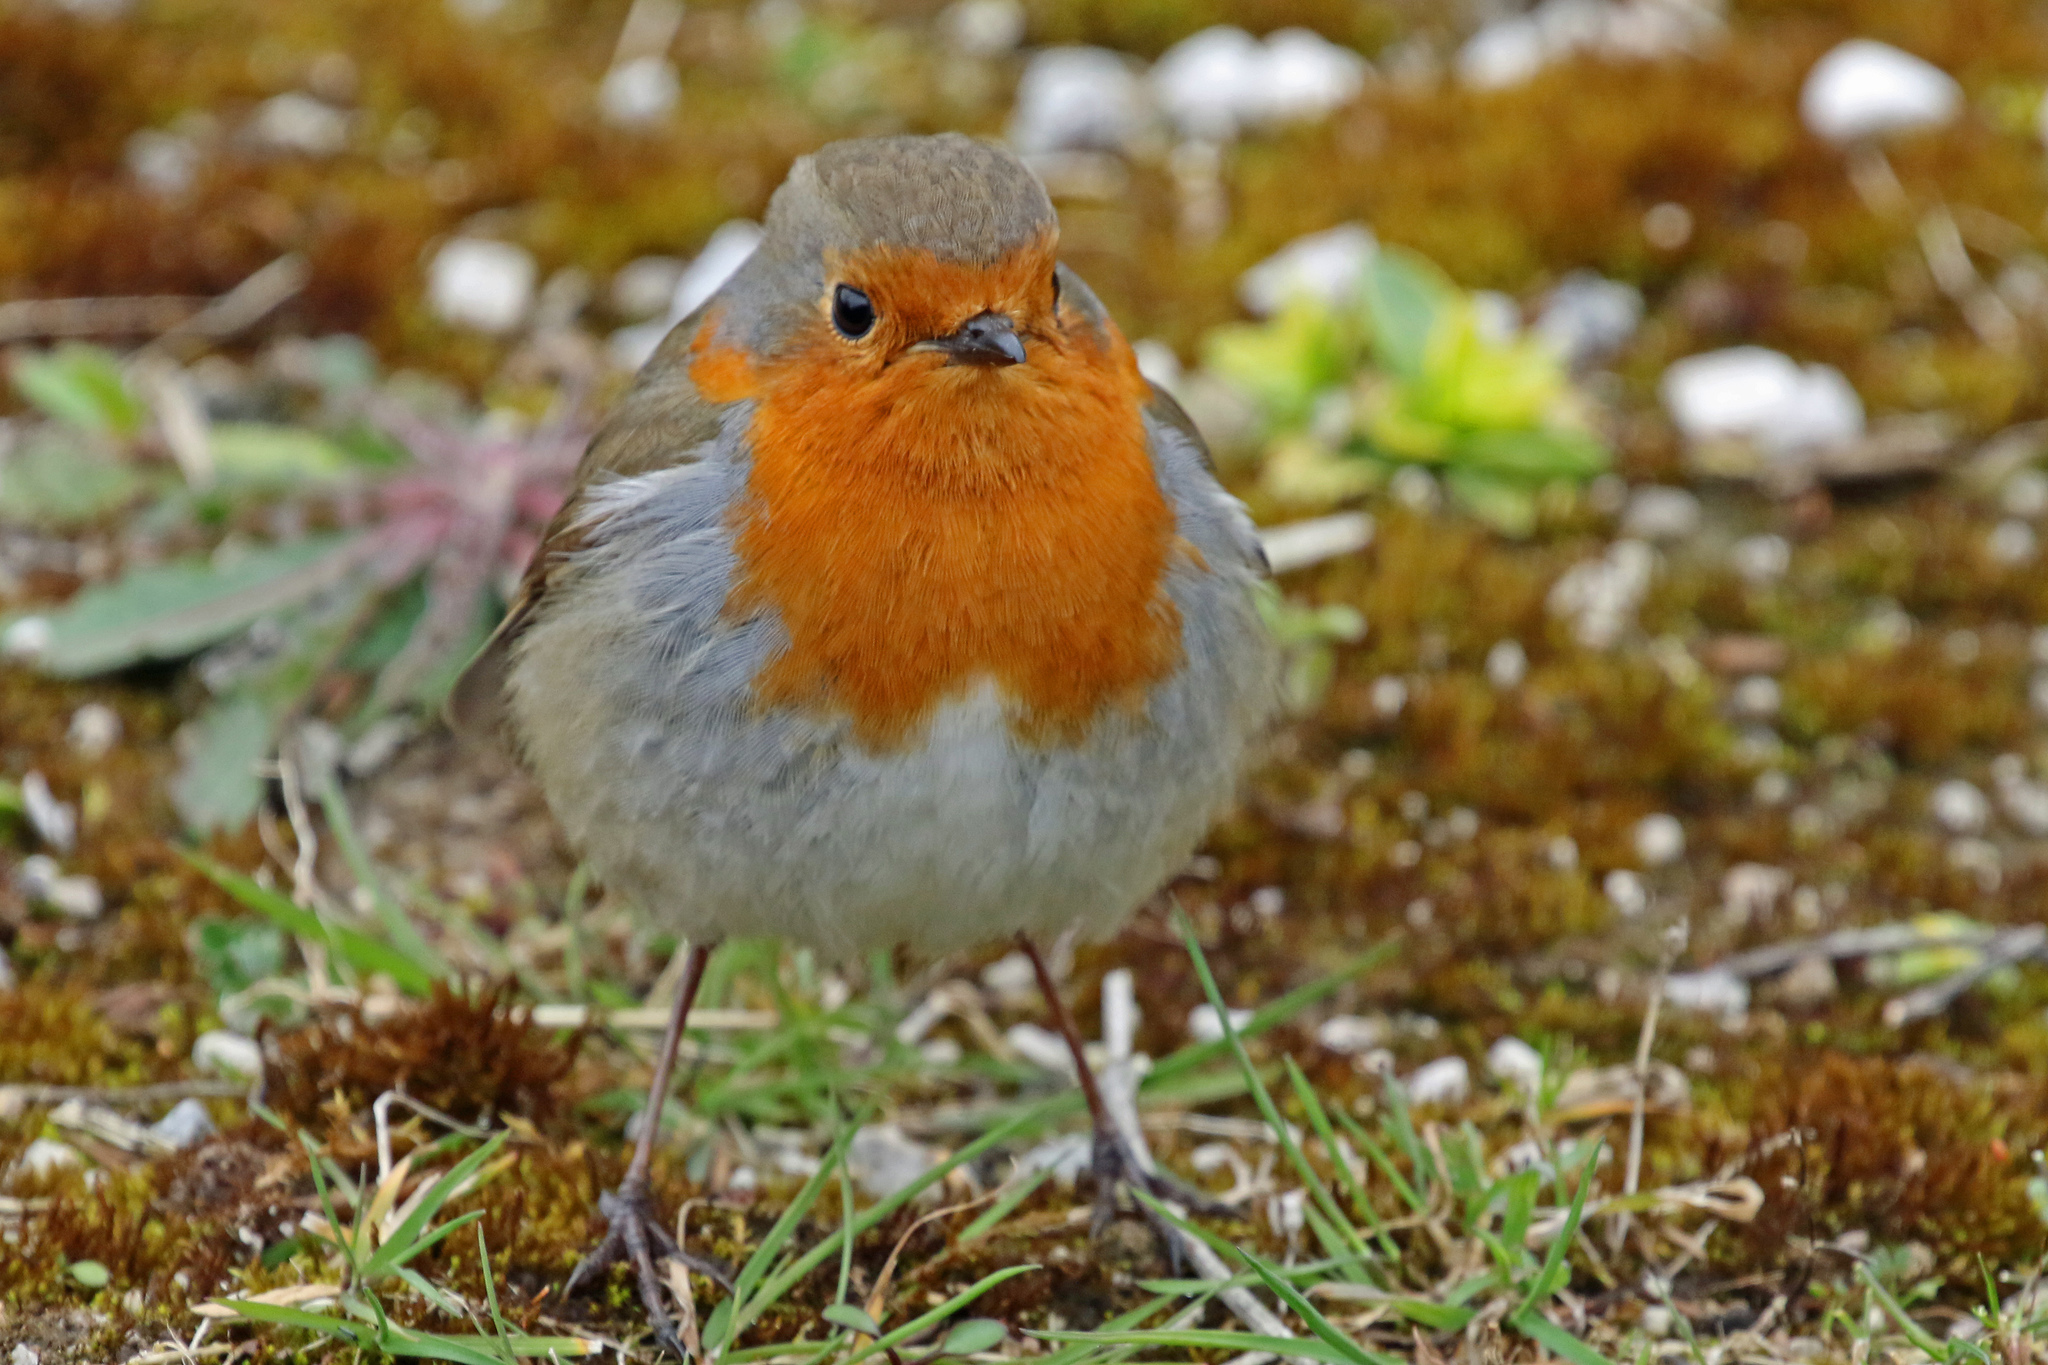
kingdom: Animalia
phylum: Chordata
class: Aves
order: Passeriformes
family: Muscicapidae
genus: Erithacus
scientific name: Erithacus rubecula
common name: European robin
